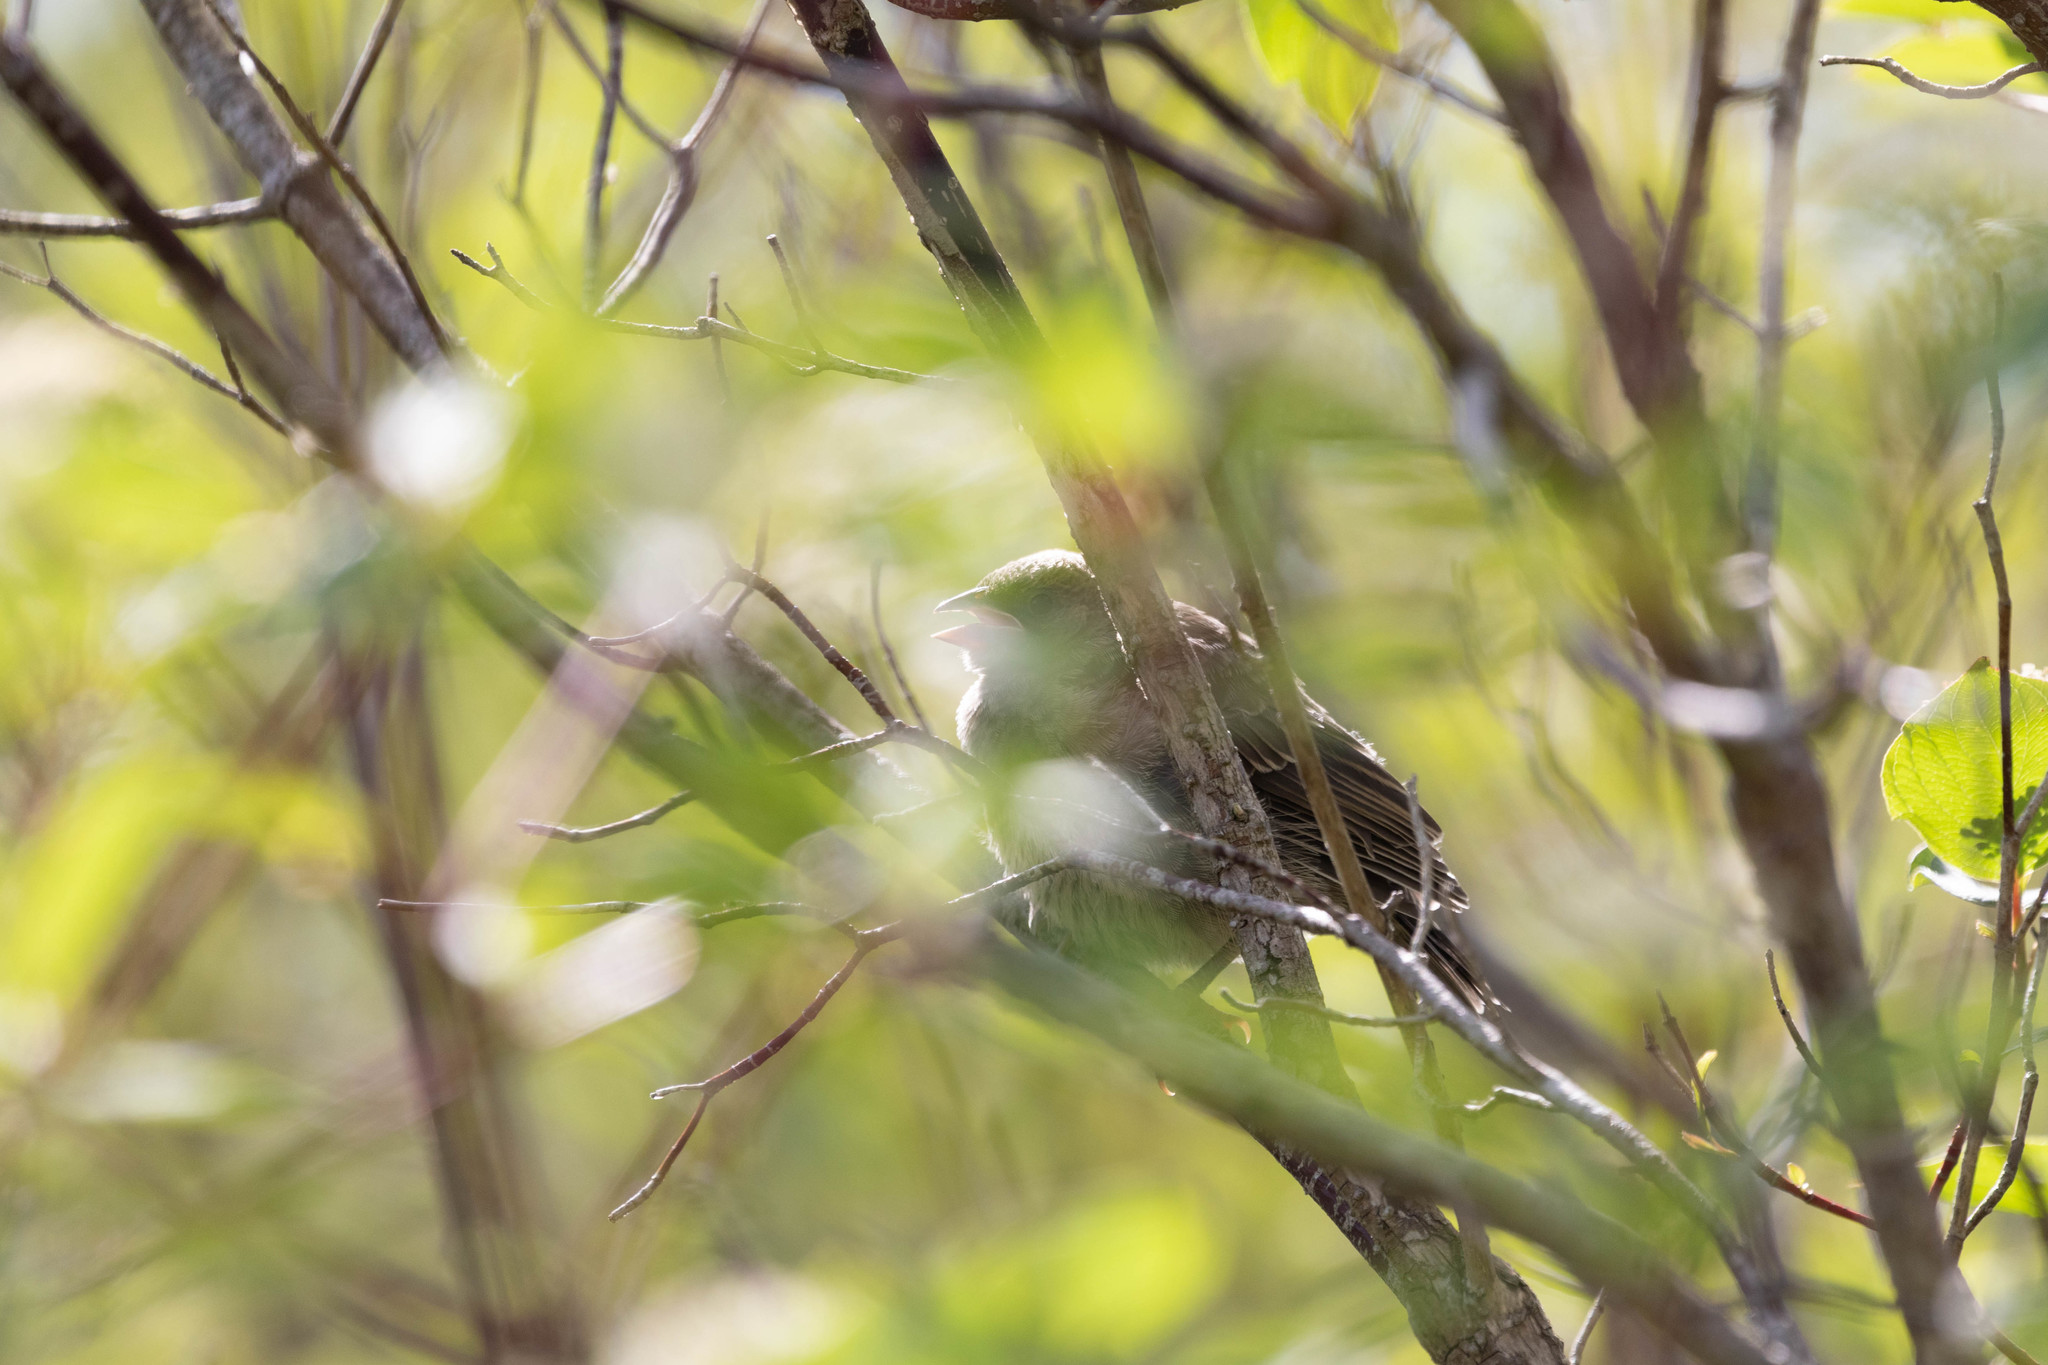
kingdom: Animalia
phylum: Chordata
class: Aves
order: Passeriformes
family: Icteridae
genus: Molothrus
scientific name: Molothrus ater
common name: Brown-headed cowbird
